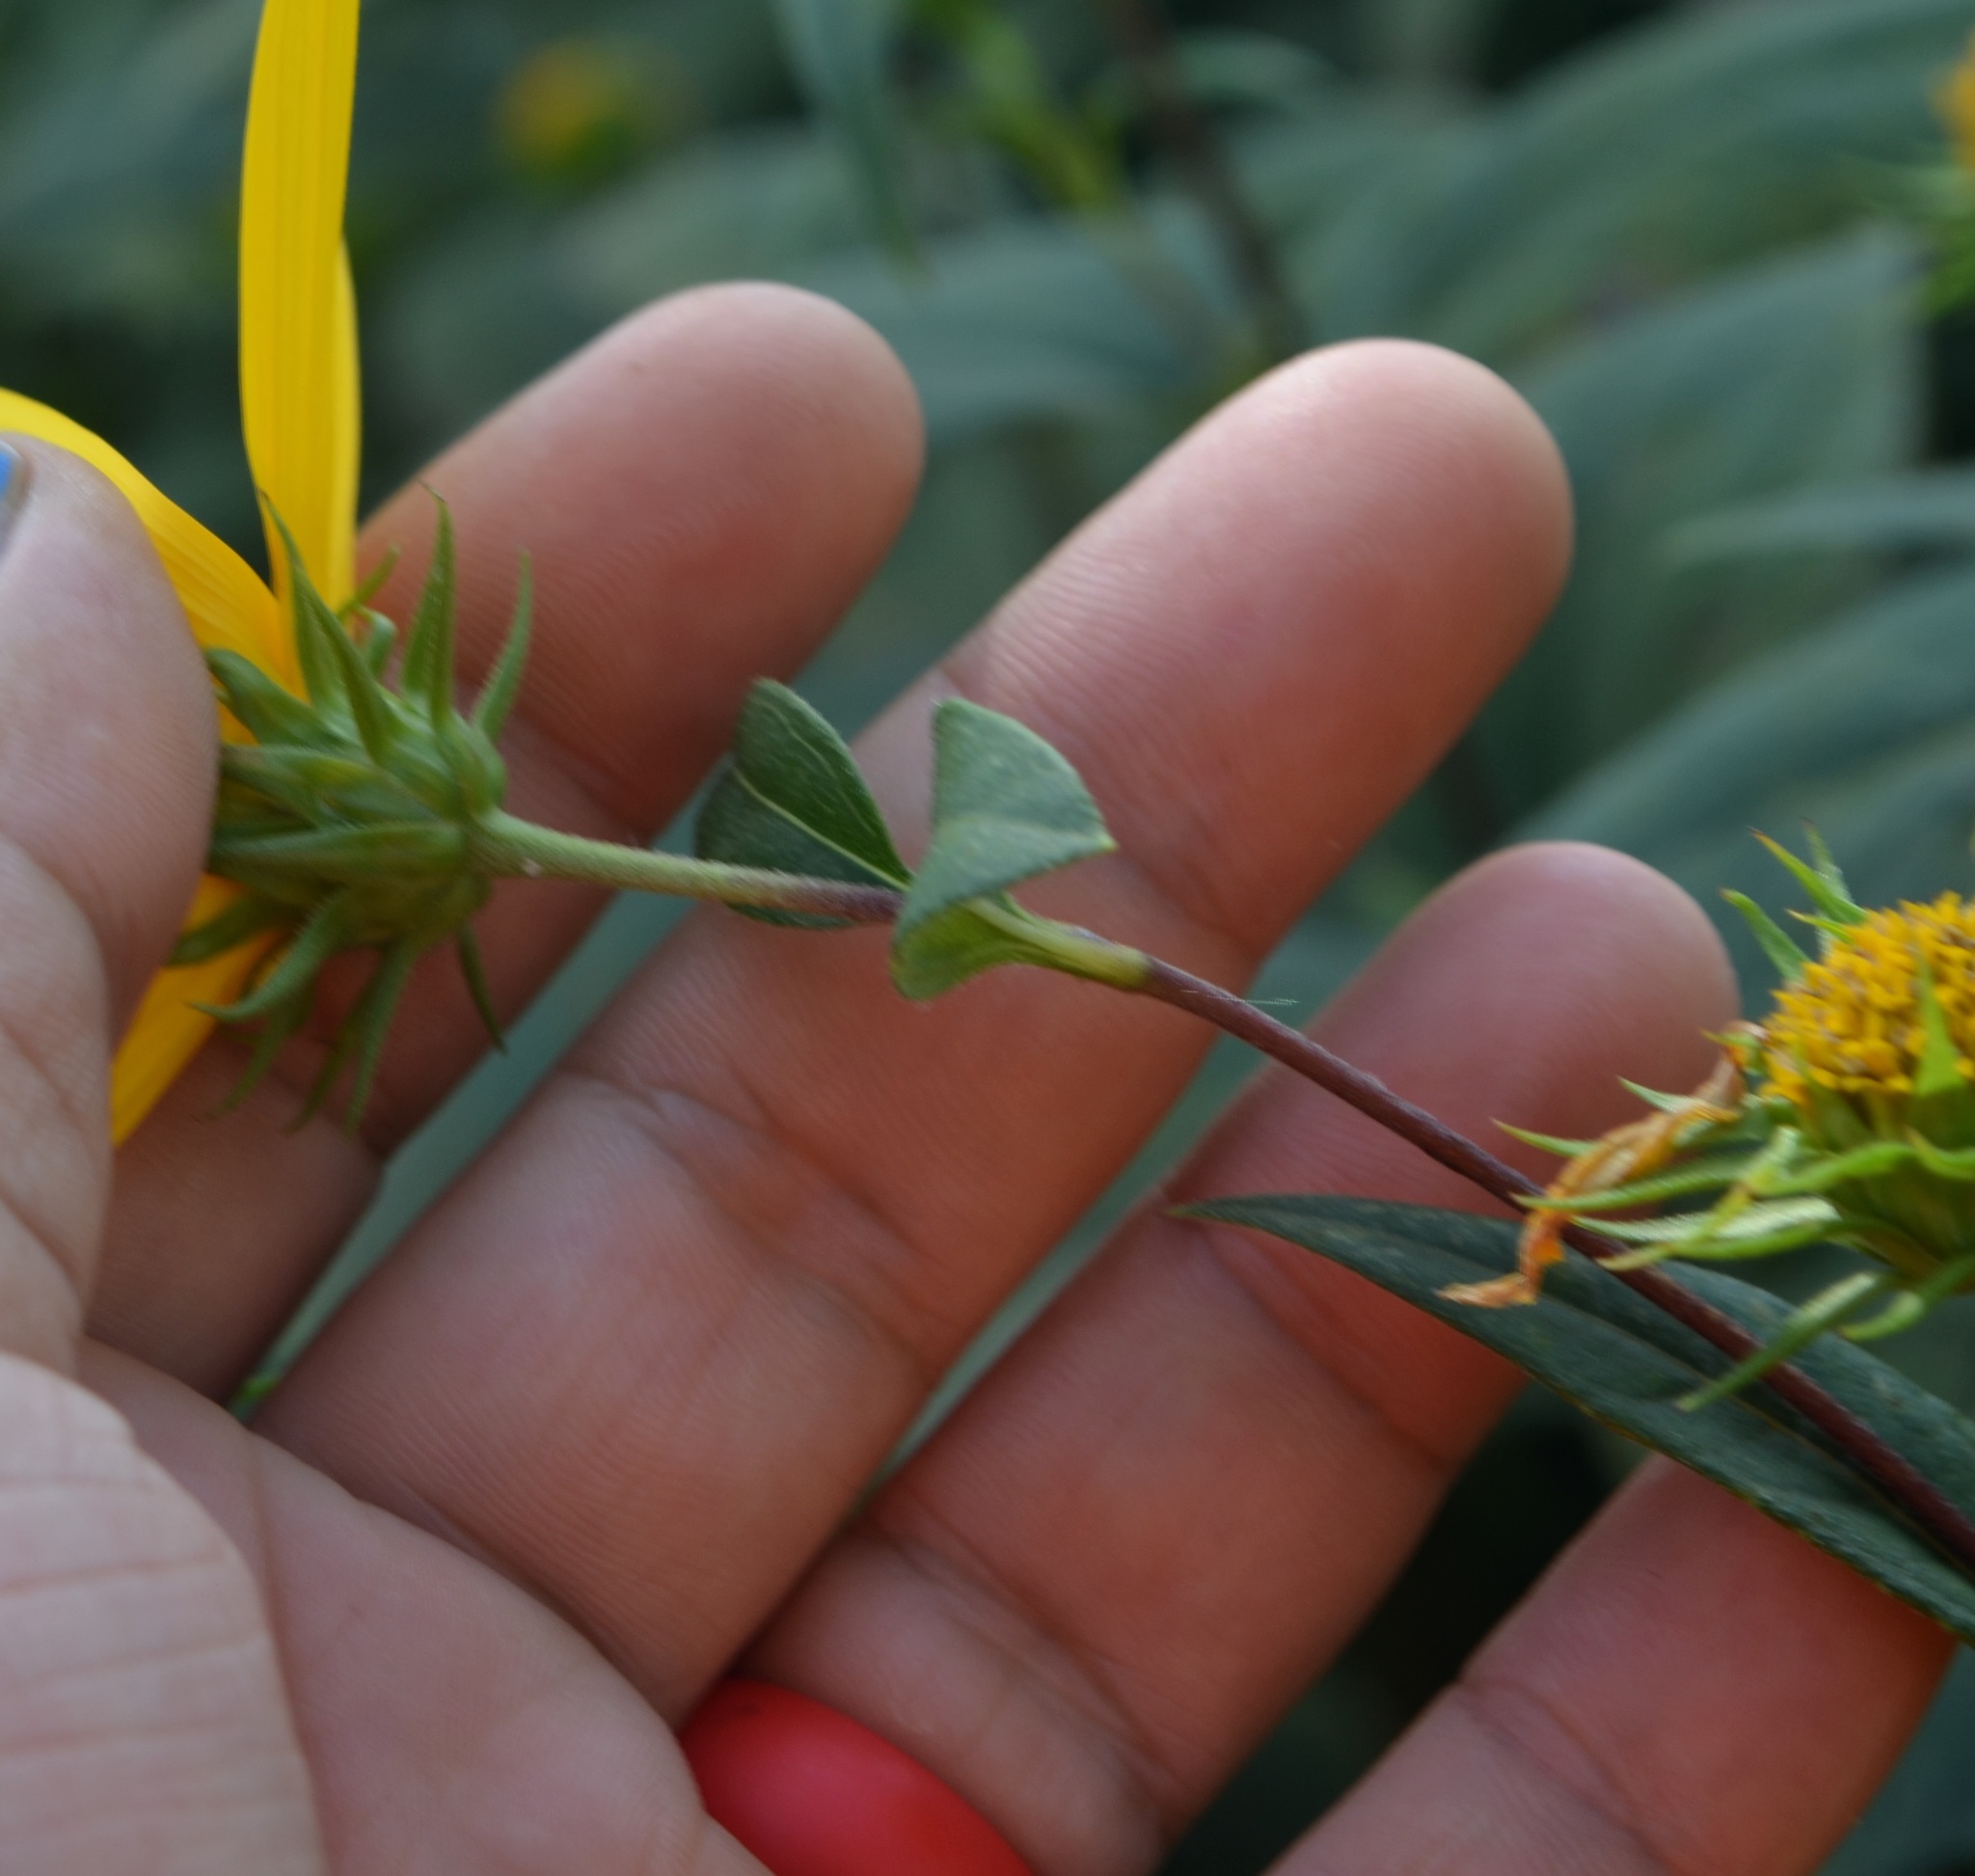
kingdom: Plantae
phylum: Tracheophyta
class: Magnoliopsida
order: Asterales
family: Asteraceae
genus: Helianthus
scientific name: Helianthus divaricatus
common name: Divergent sunflower
